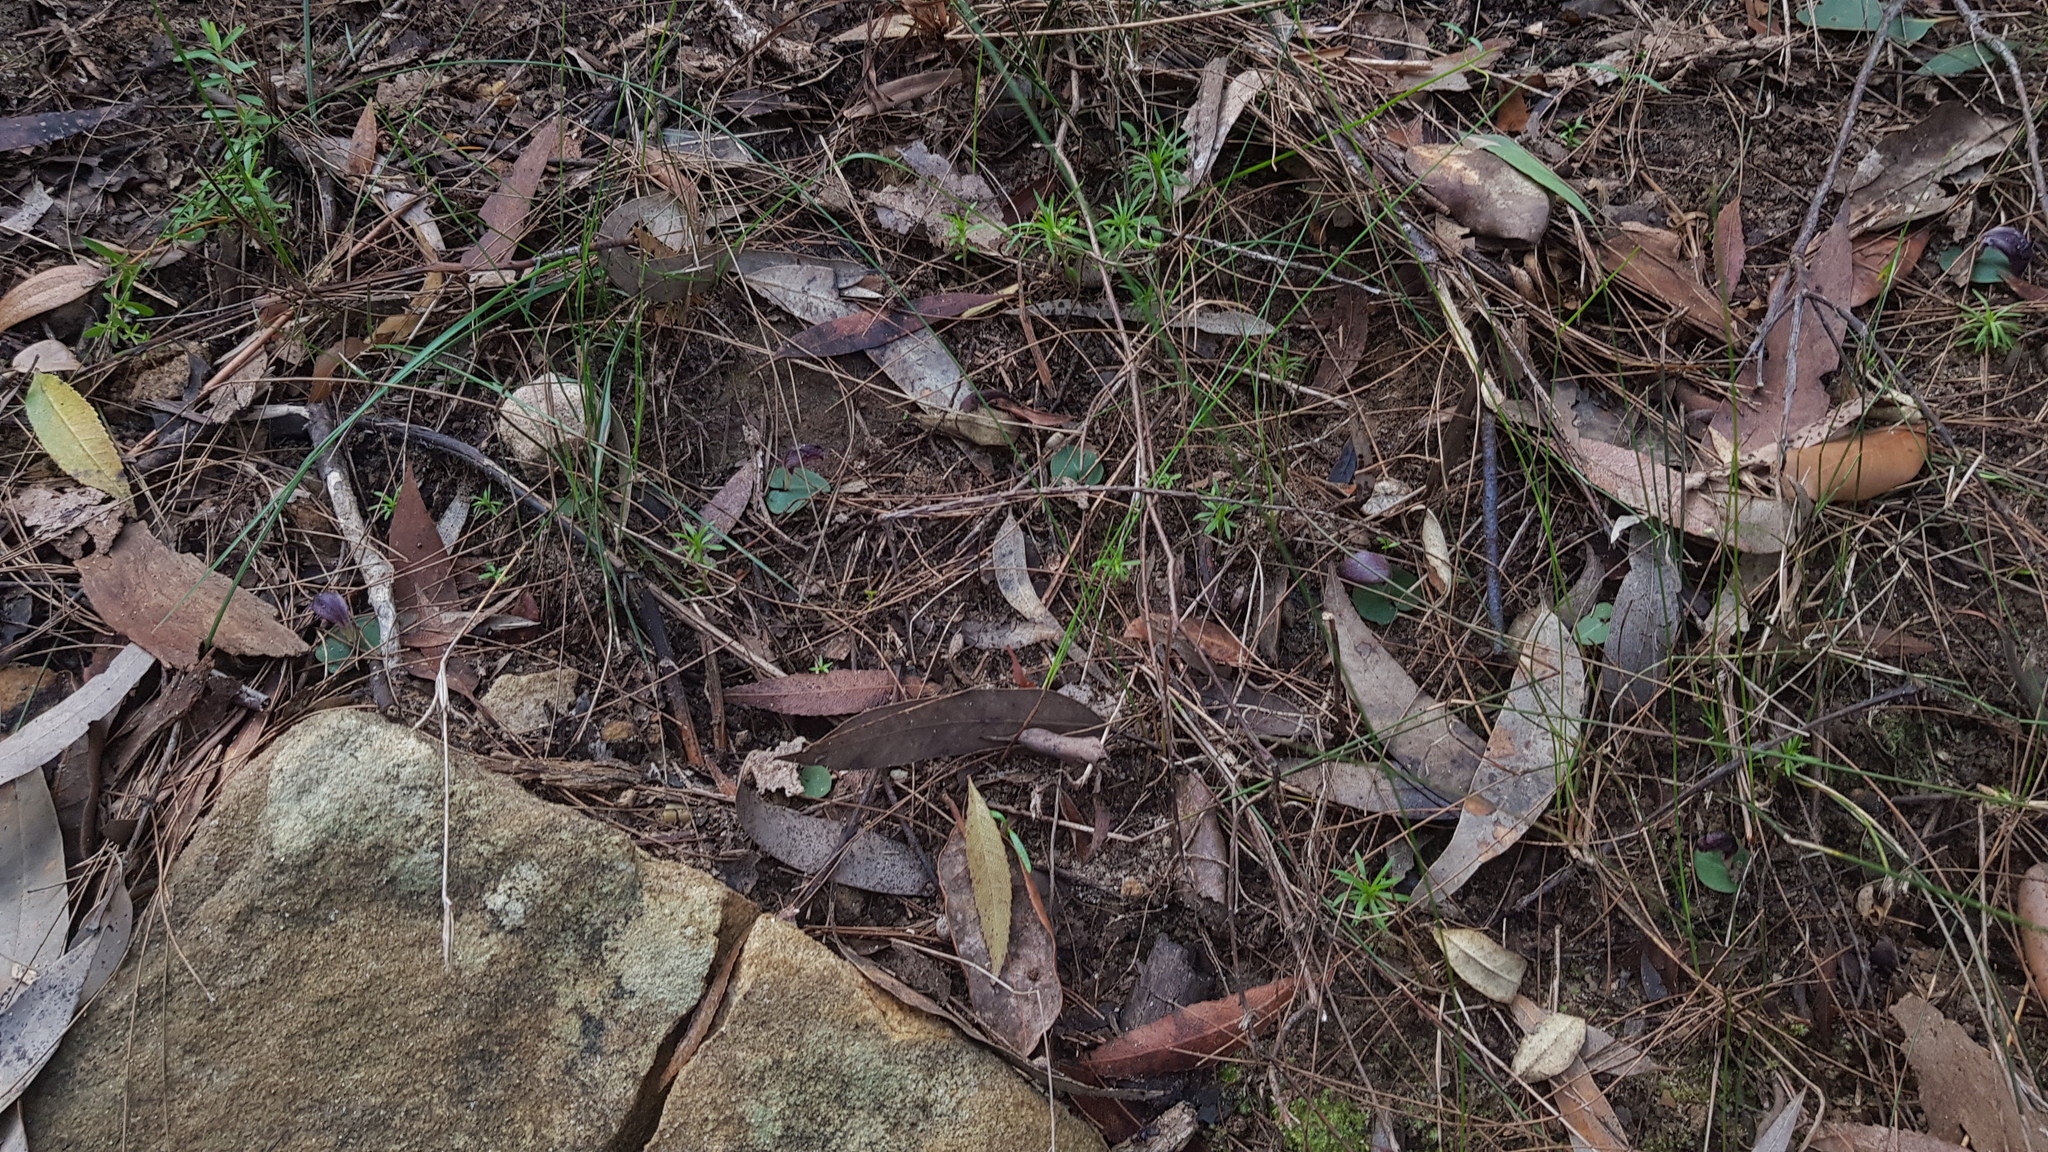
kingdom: Plantae
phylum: Tracheophyta
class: Liliopsida
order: Asparagales
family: Orchidaceae
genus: Corybas
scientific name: Corybas aconitiflorus
